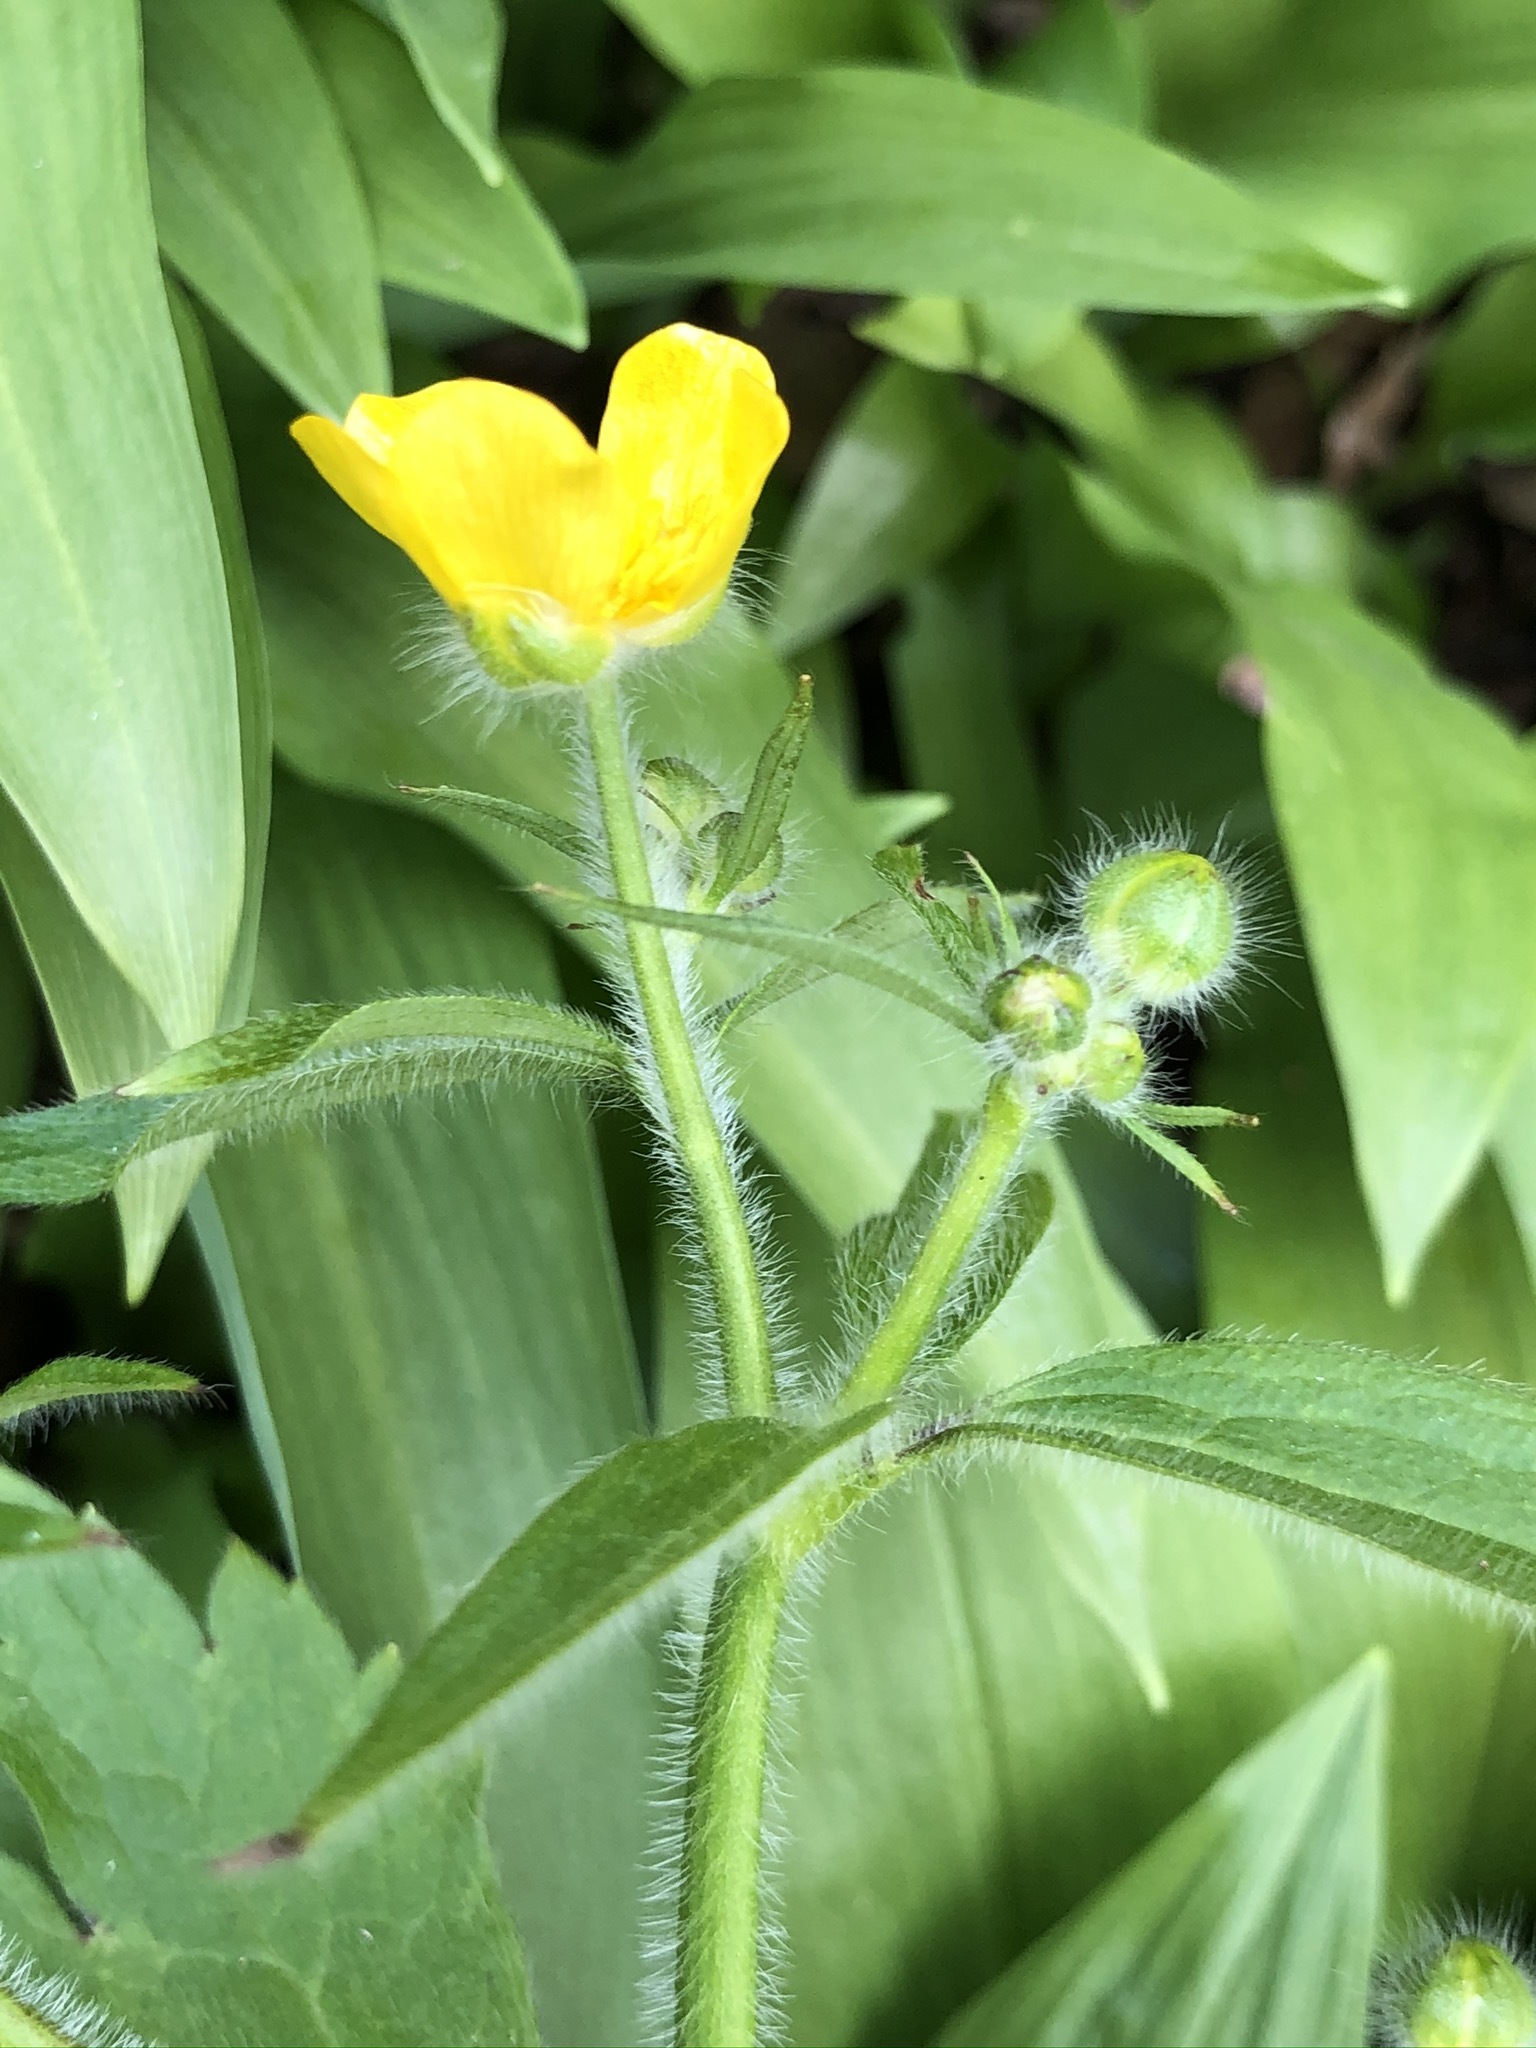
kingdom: Plantae
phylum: Tracheophyta
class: Magnoliopsida
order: Ranunculales
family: Ranunculaceae
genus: Ranunculus
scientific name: Ranunculus lanuginosus
